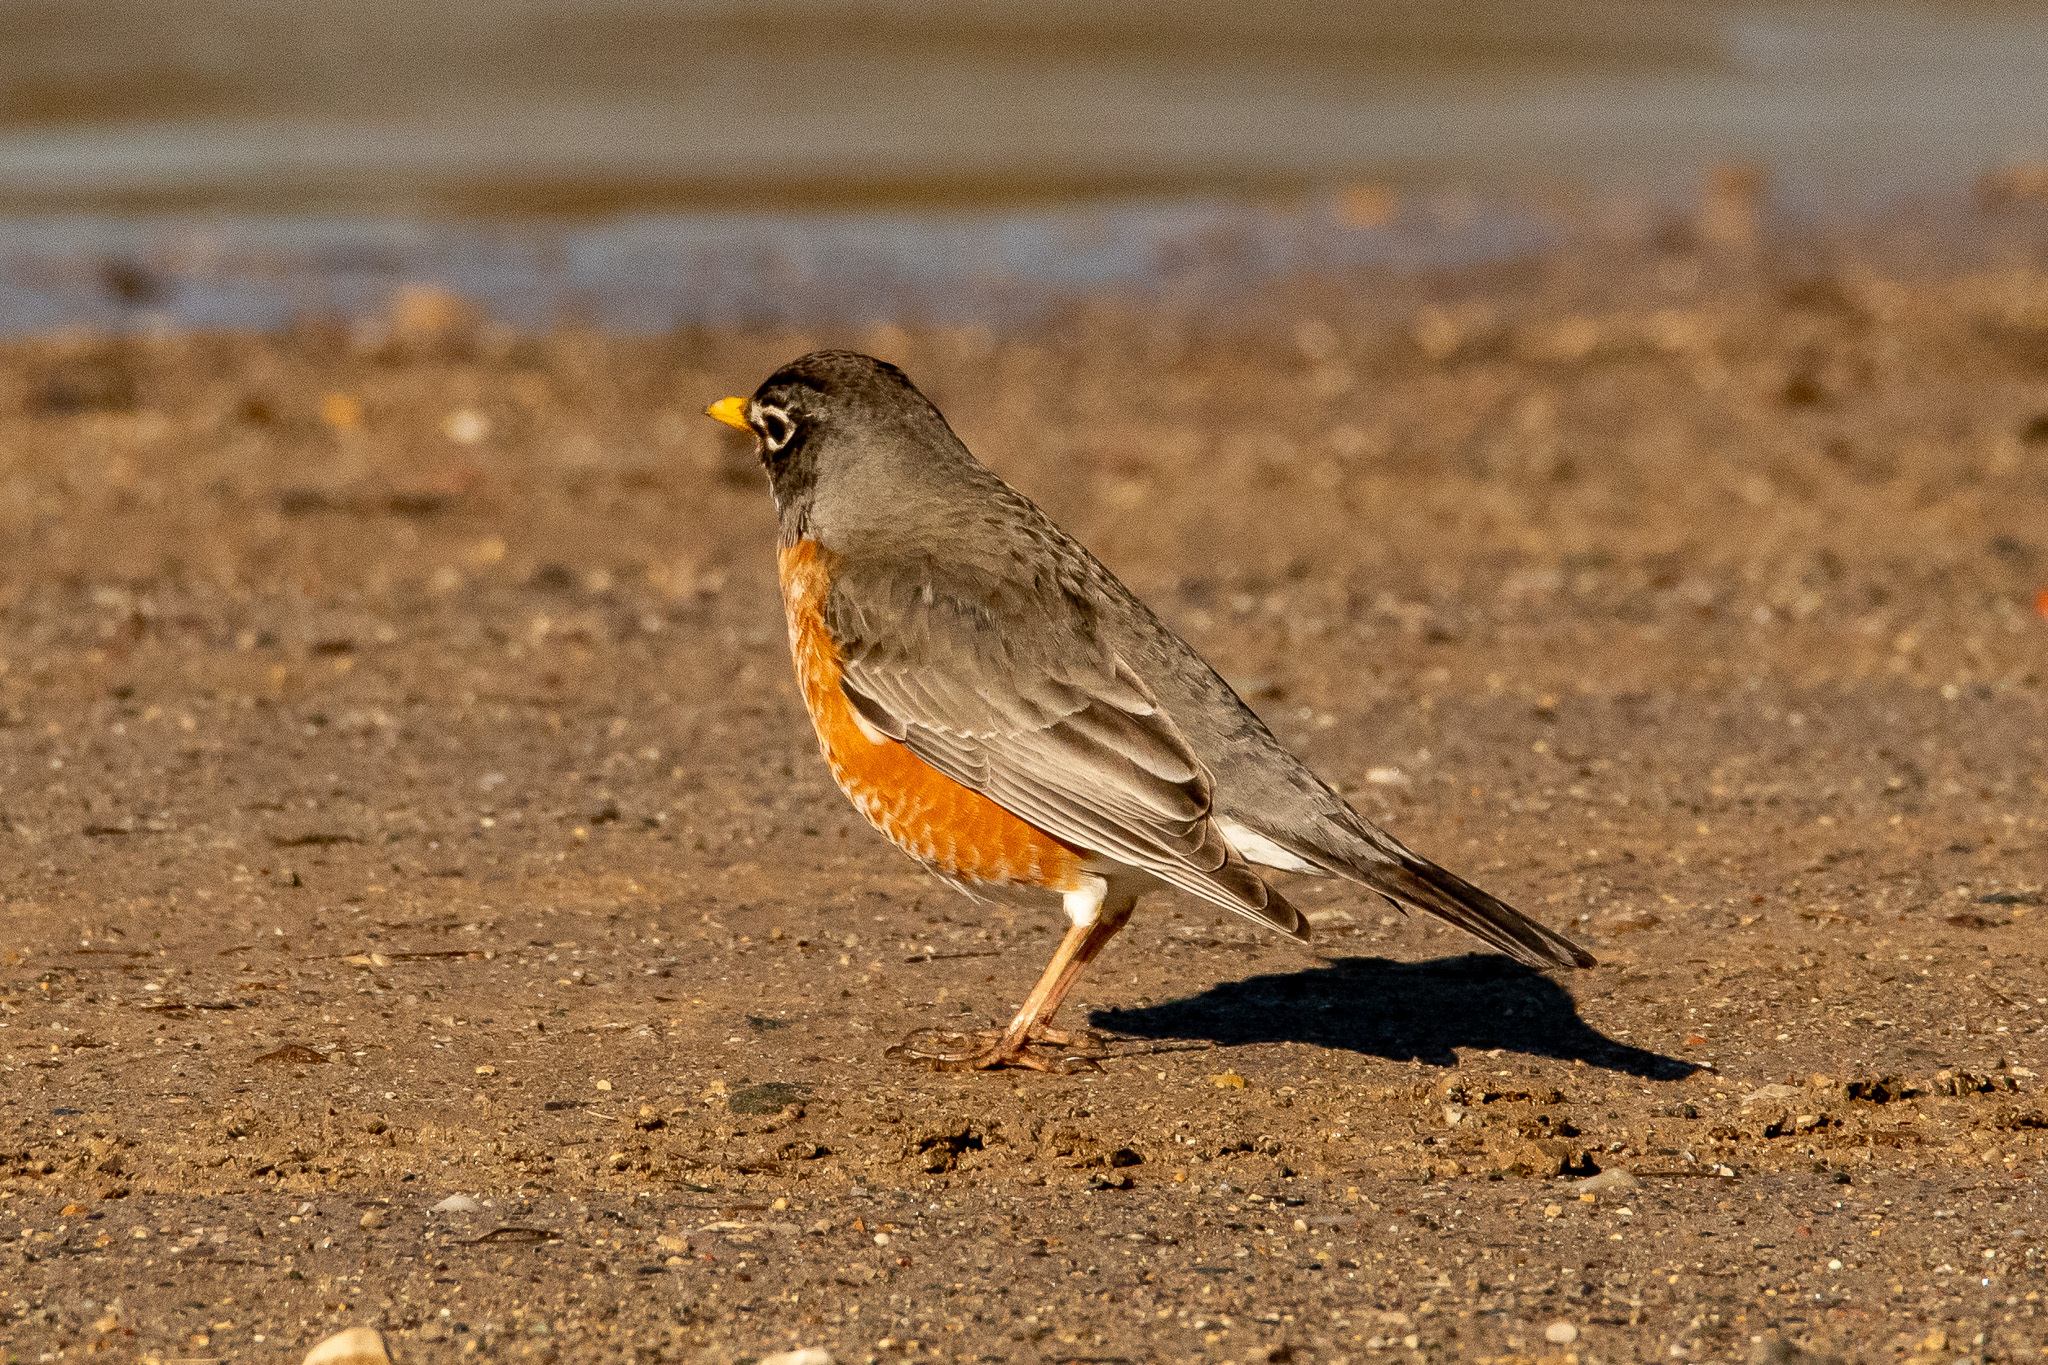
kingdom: Animalia
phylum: Chordata
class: Aves
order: Passeriformes
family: Turdidae
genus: Turdus
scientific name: Turdus migratorius
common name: American robin
